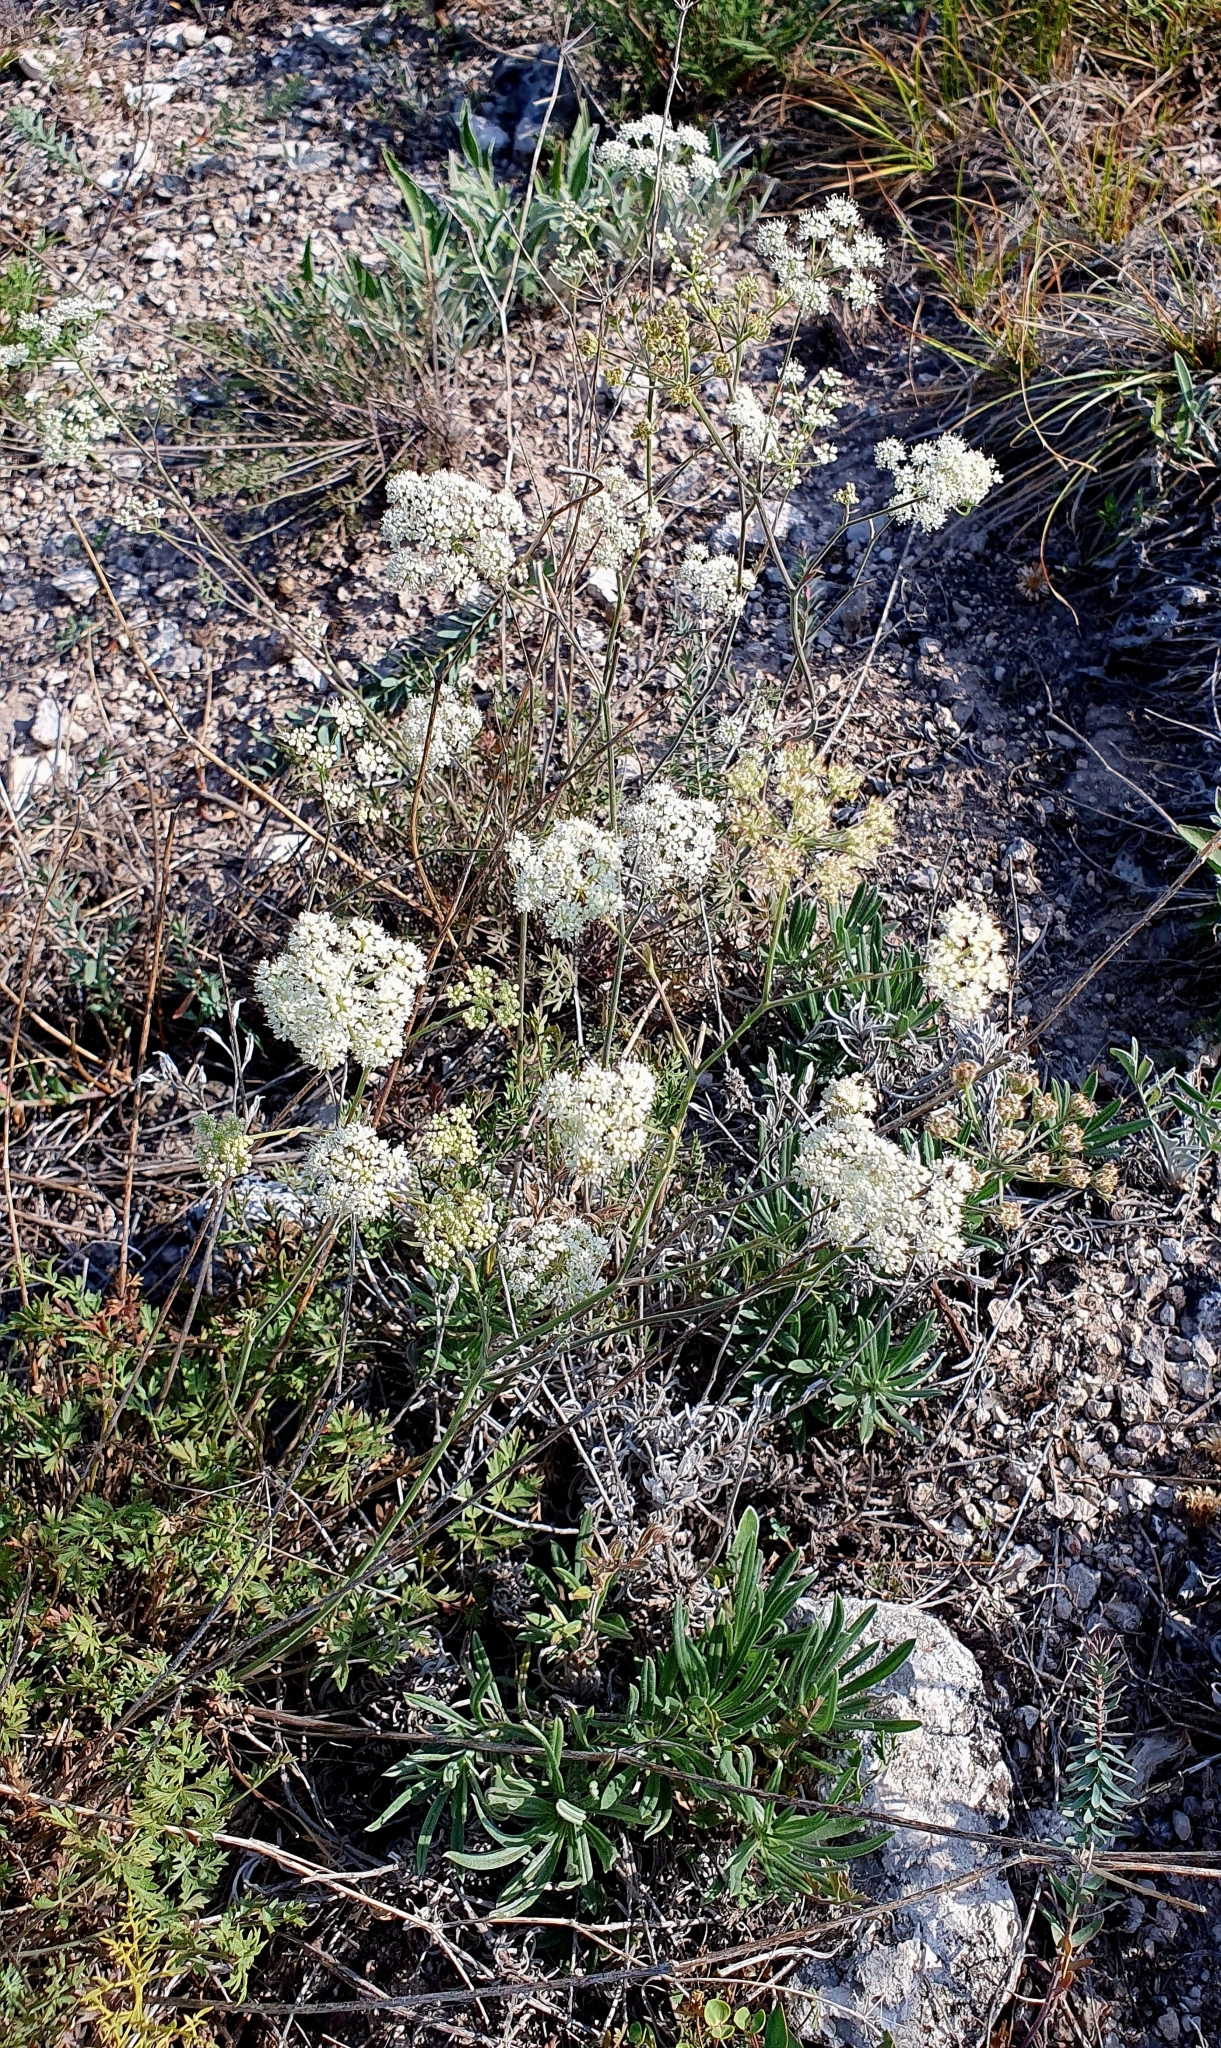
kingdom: Plantae
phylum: Tracheophyta
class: Magnoliopsida
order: Apiales
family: Apiaceae
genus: Pimpinella
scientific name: Pimpinella tragium
